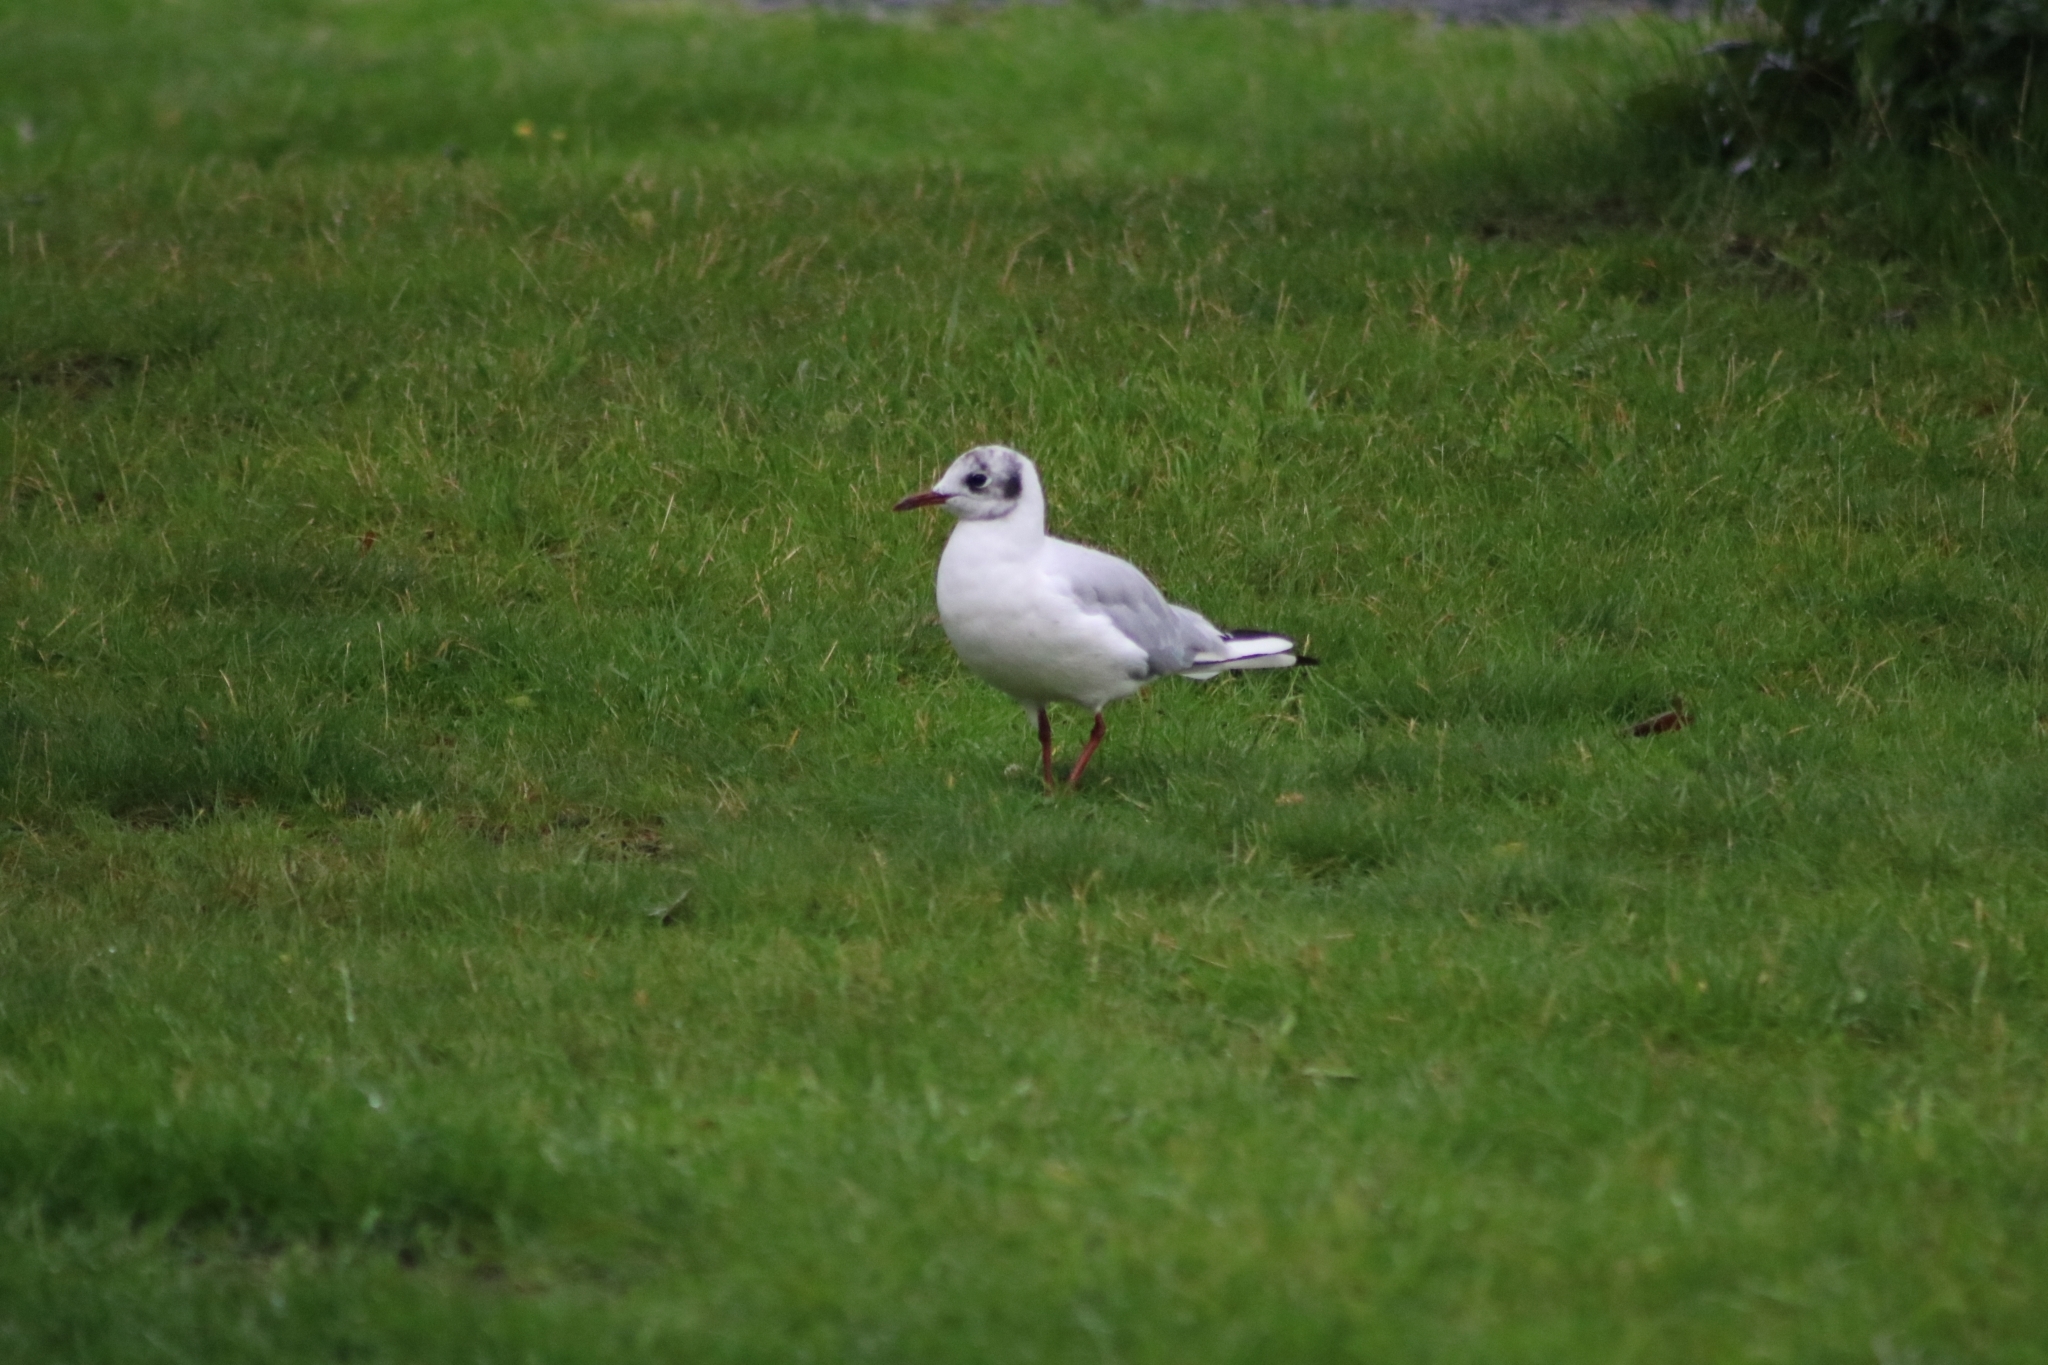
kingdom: Animalia
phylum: Chordata
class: Aves
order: Charadriiformes
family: Laridae
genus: Chroicocephalus
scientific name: Chroicocephalus ridibundus
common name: Black-headed gull
